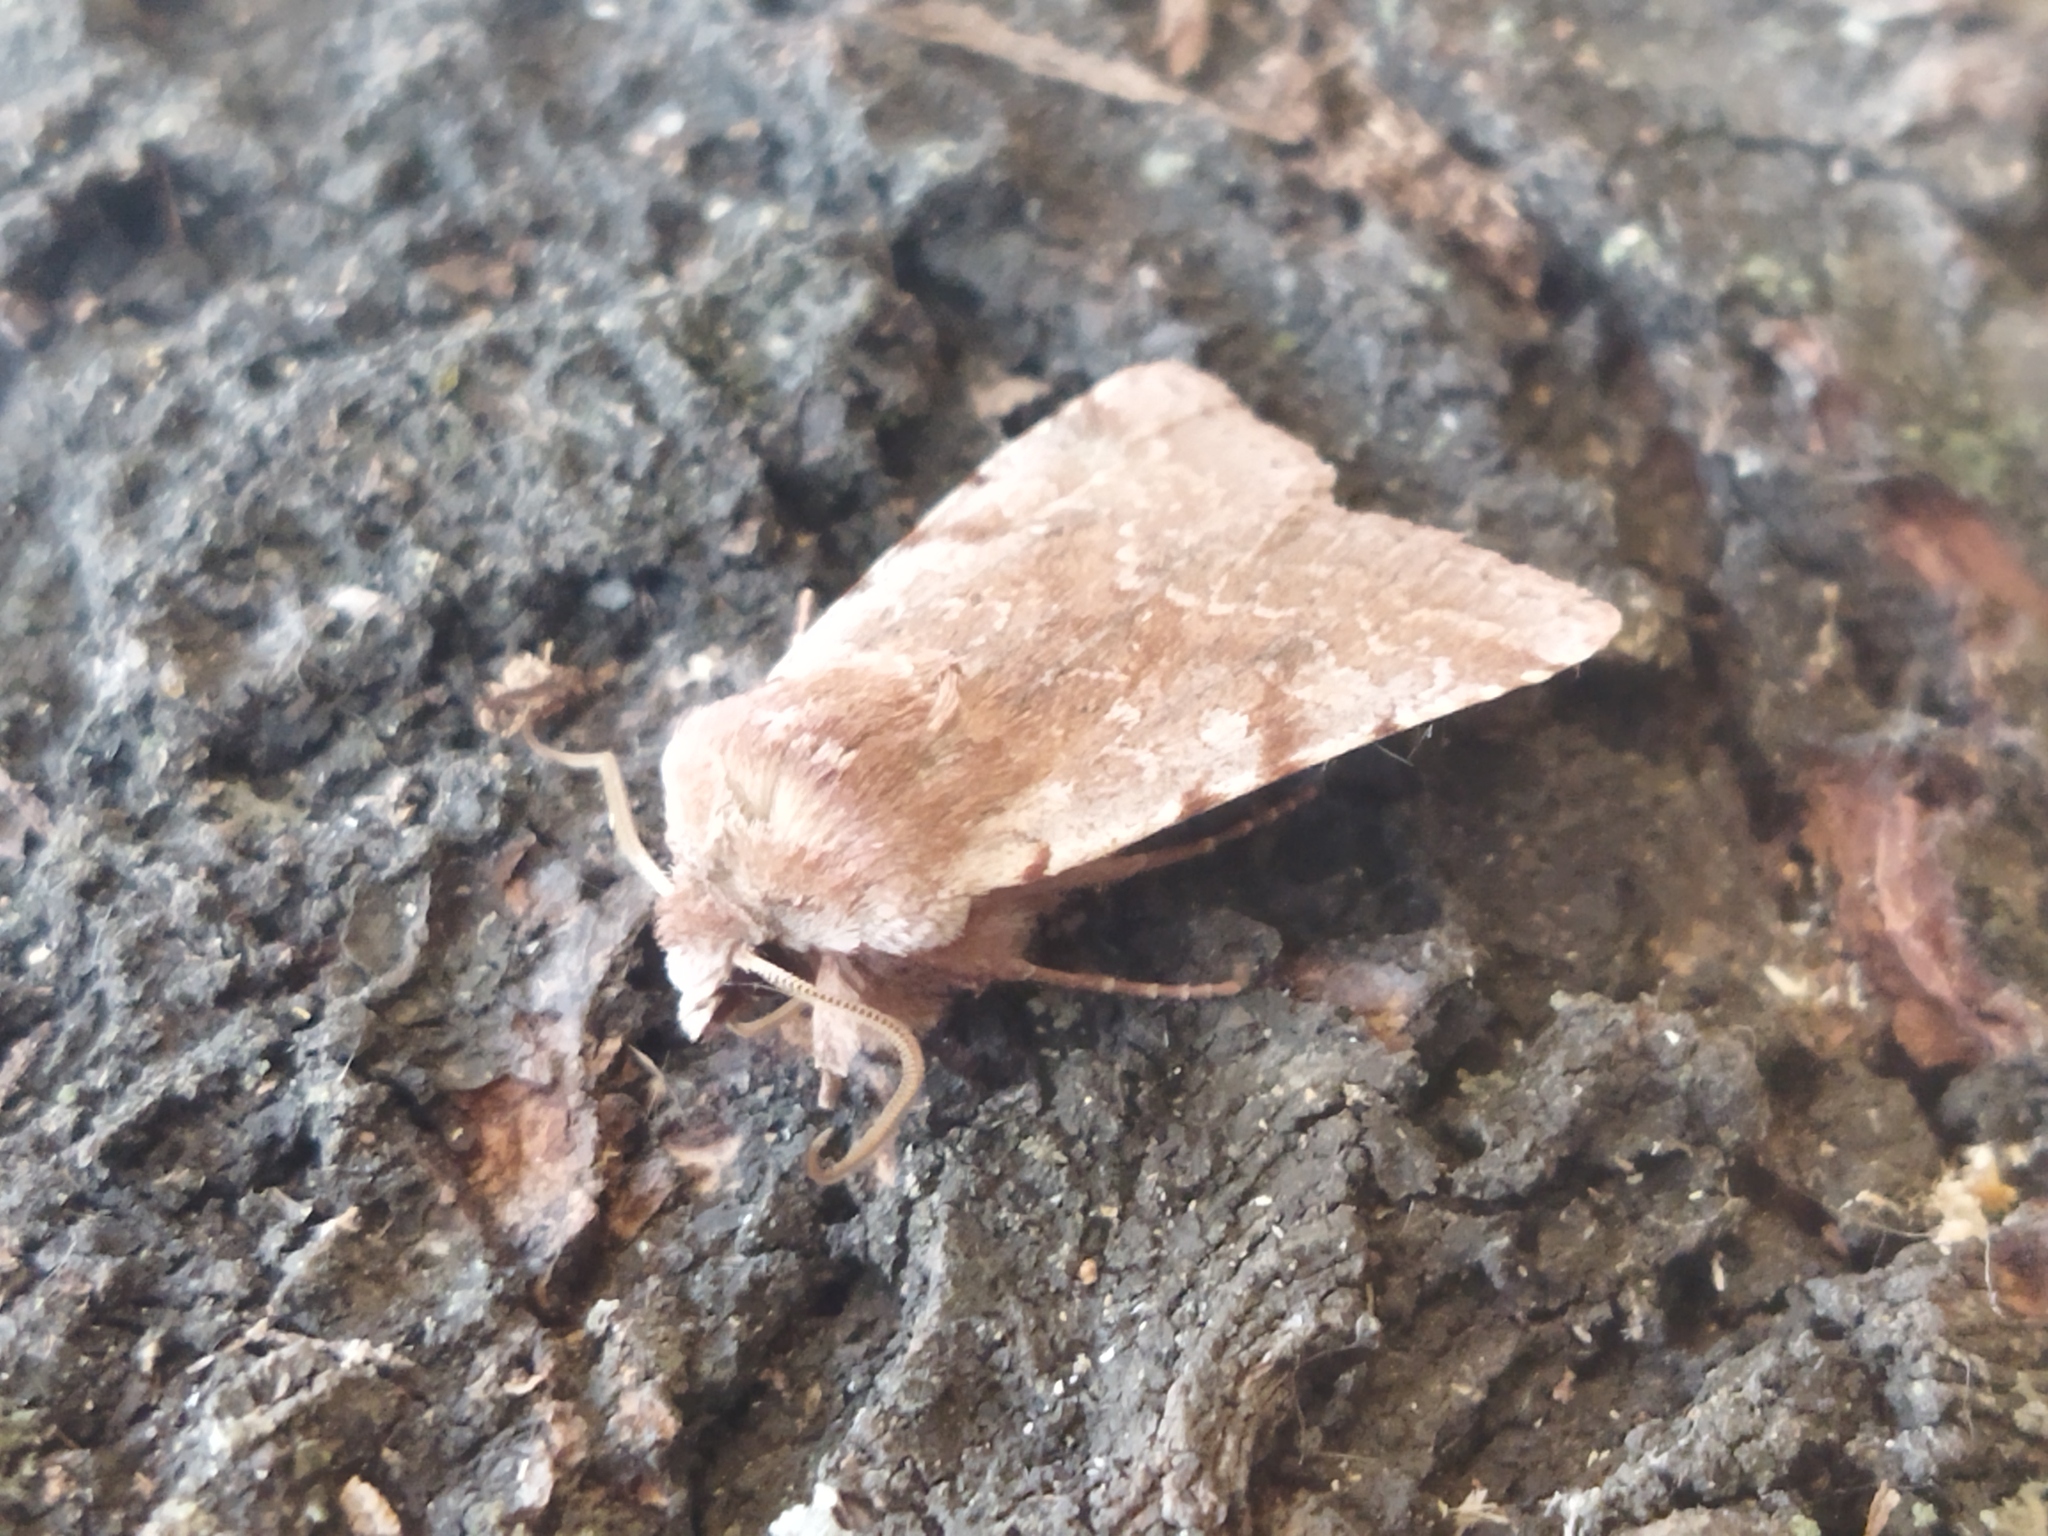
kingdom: Animalia
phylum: Arthropoda
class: Insecta
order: Lepidoptera
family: Noctuidae
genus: Cerastis
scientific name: Cerastis rubricosa
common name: Red chestnut
